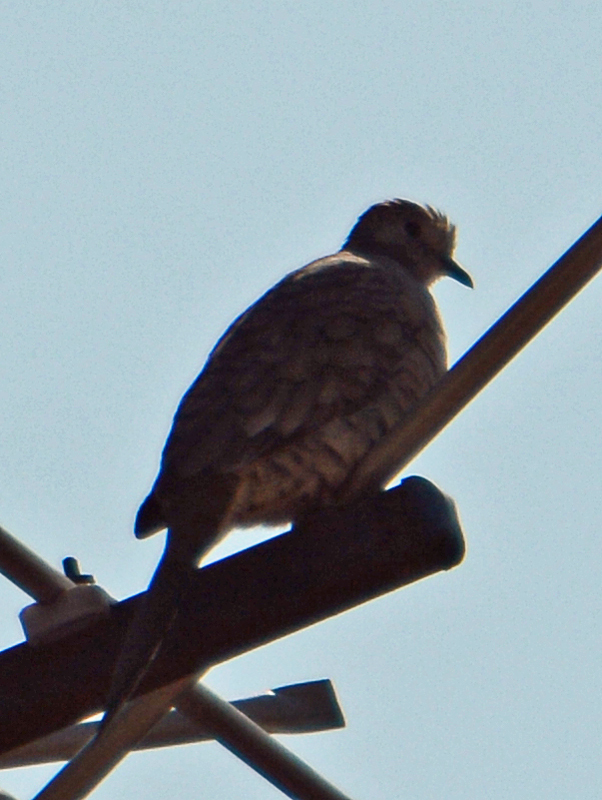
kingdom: Animalia
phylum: Chordata
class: Aves
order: Columbiformes
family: Columbidae
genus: Columbina
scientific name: Columbina inca
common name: Inca dove
